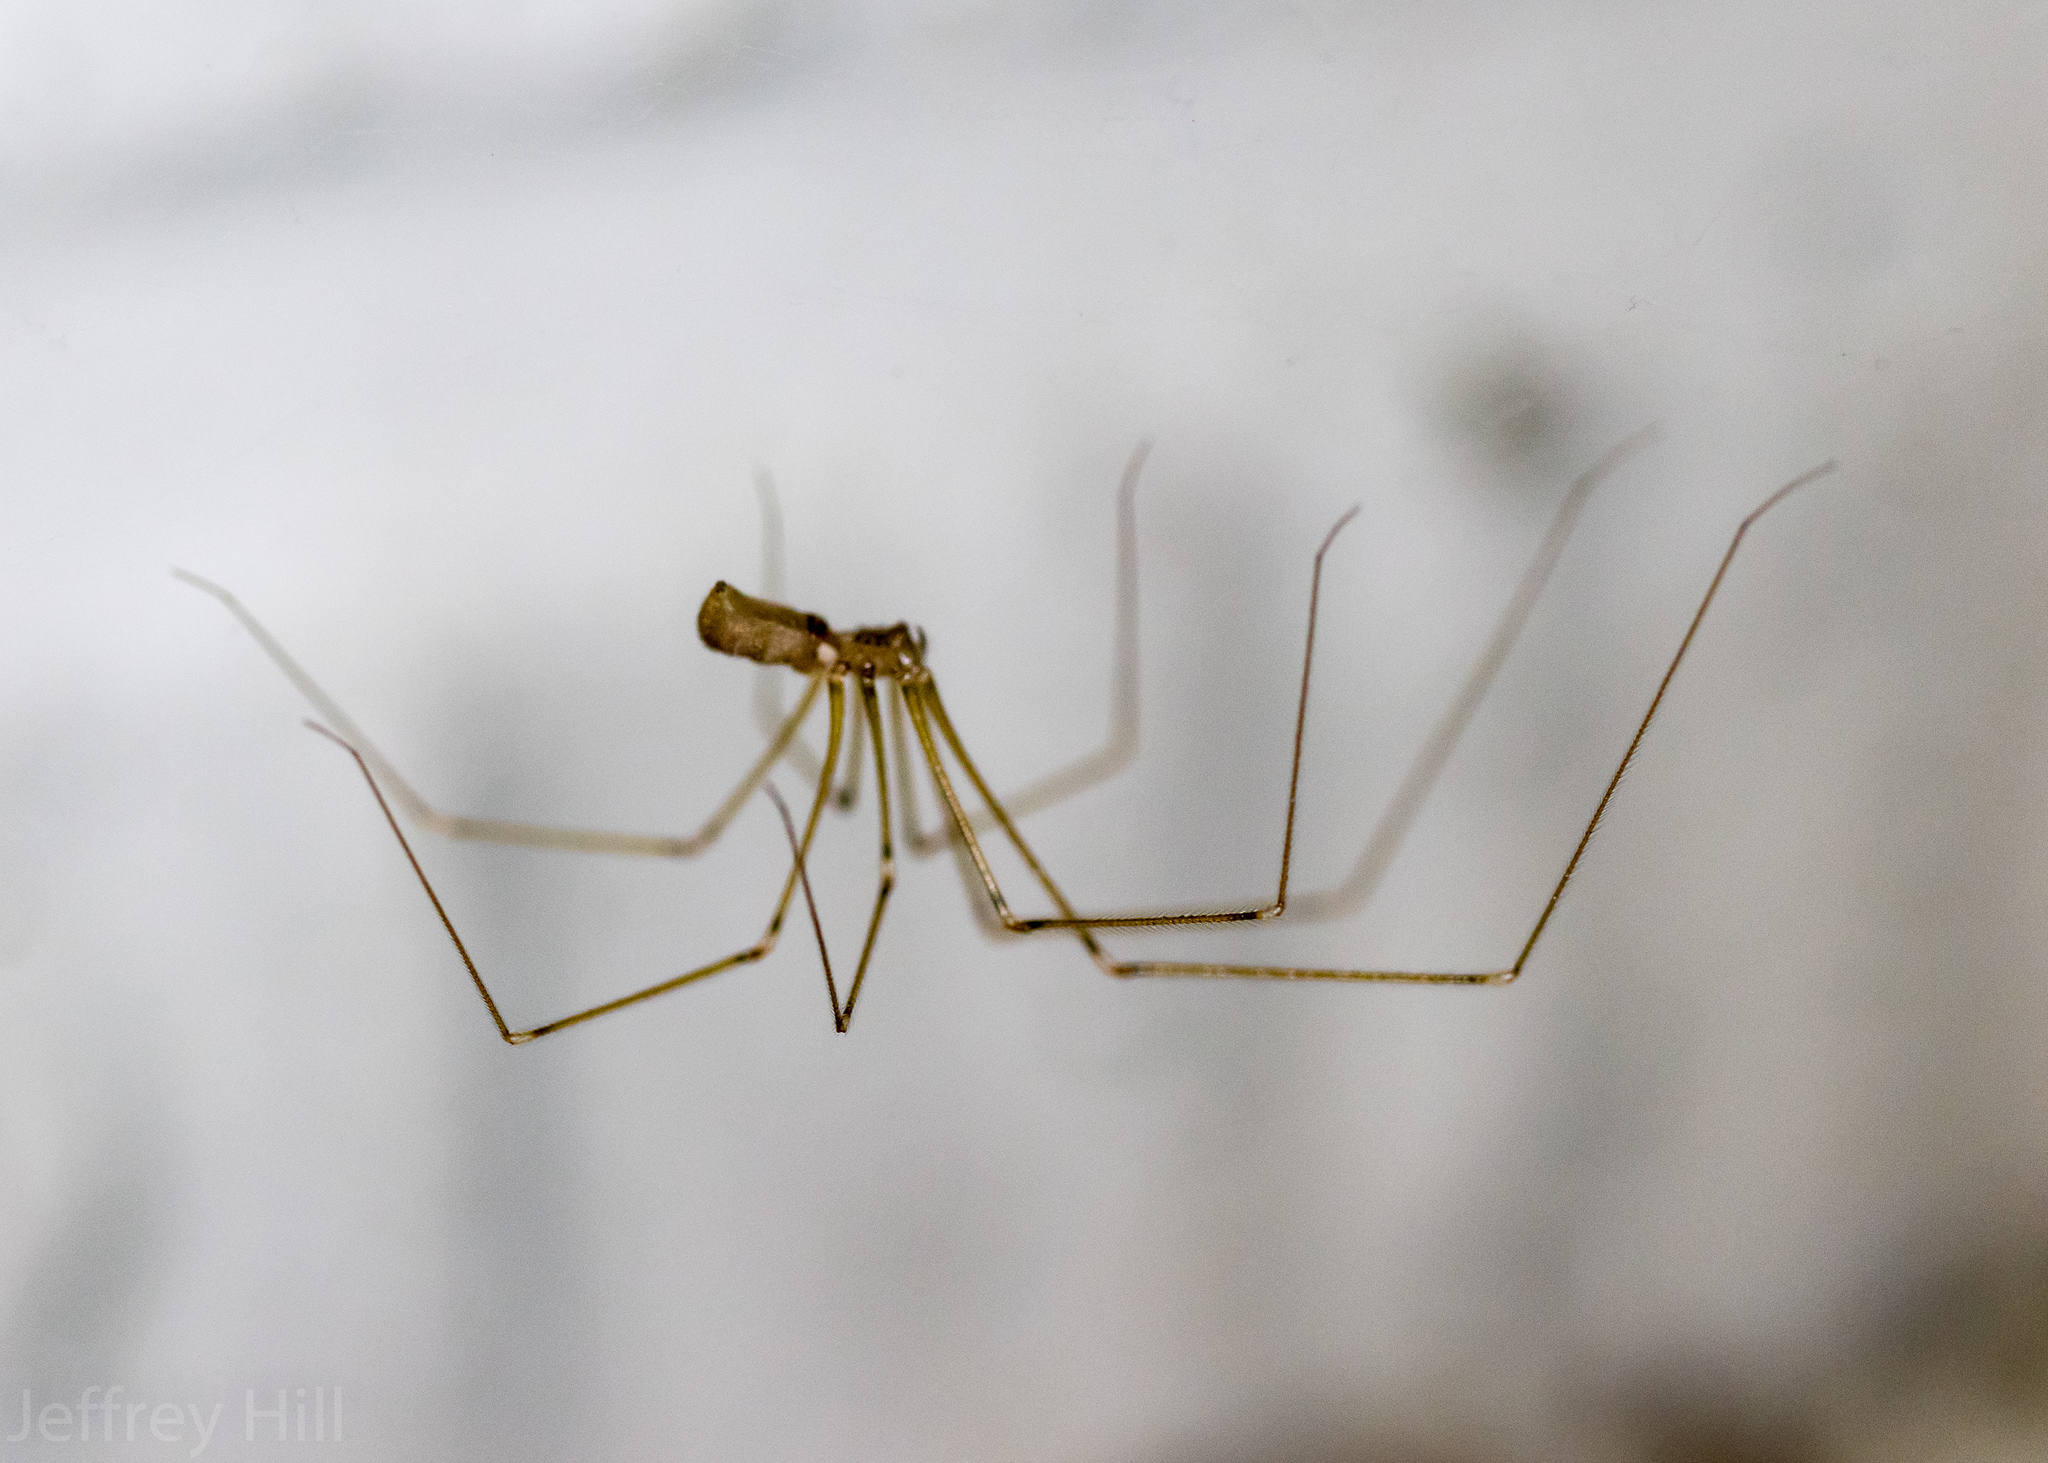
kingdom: Animalia
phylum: Arthropoda
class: Arachnida
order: Araneae
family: Pholcidae
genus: Pholcus
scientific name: Pholcus phalangioides
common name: Longbodied cellar spider
